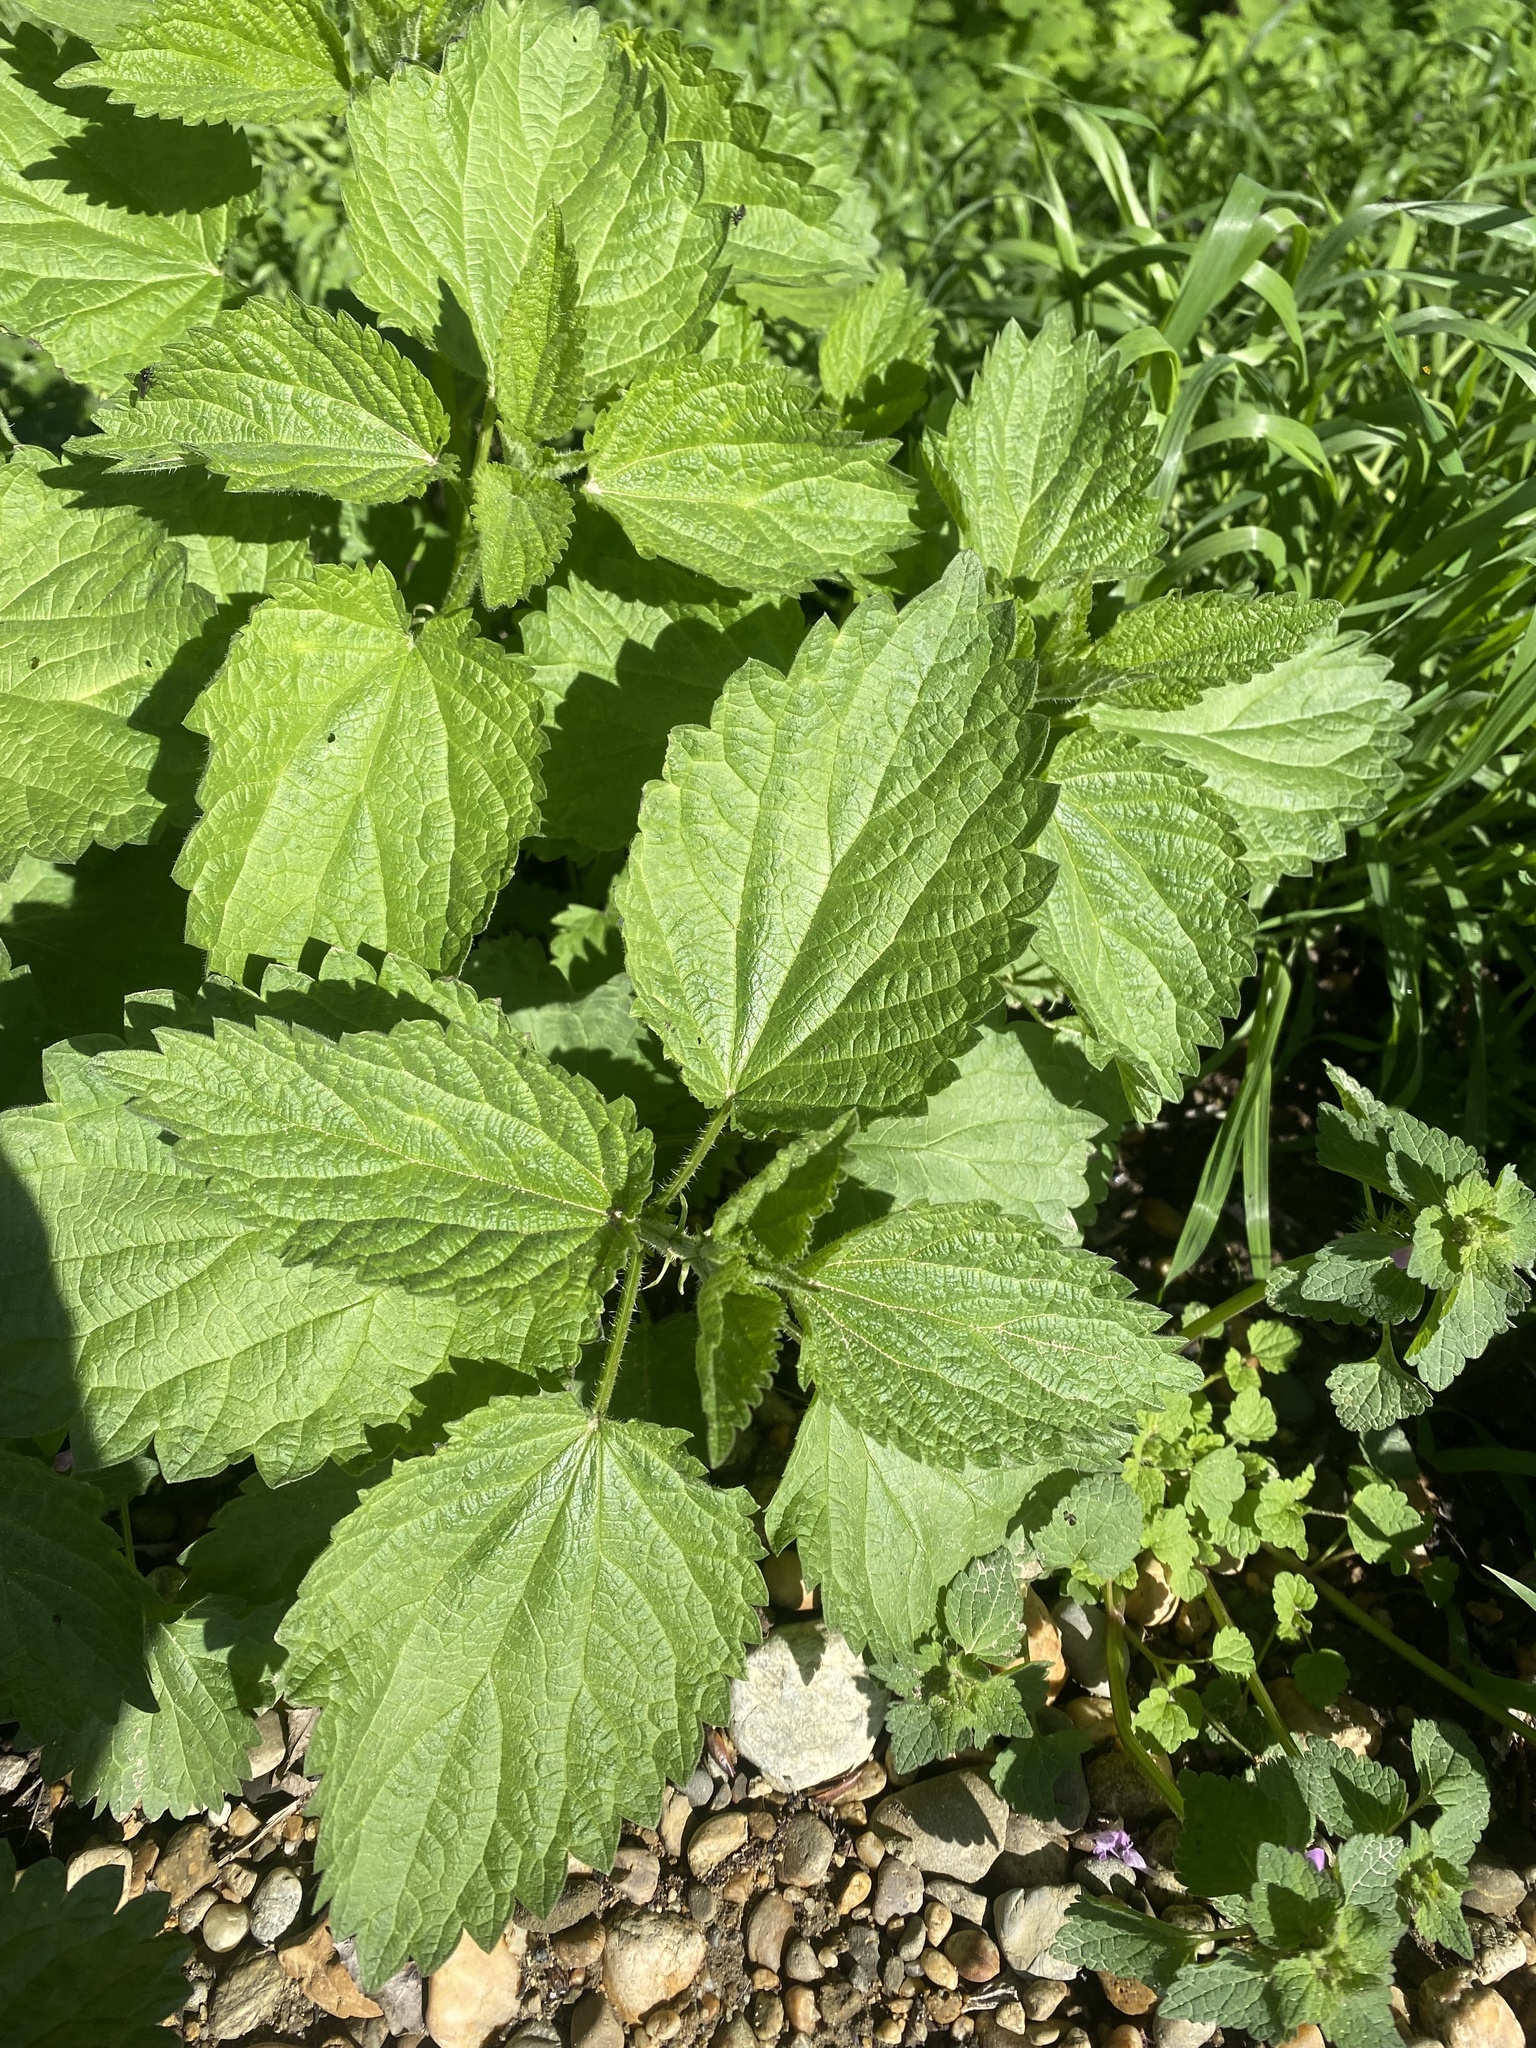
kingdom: Plantae
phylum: Tracheophyta
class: Magnoliopsida
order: Rosales
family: Urticaceae
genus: Urtica
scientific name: Urtica dioica
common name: Common nettle
